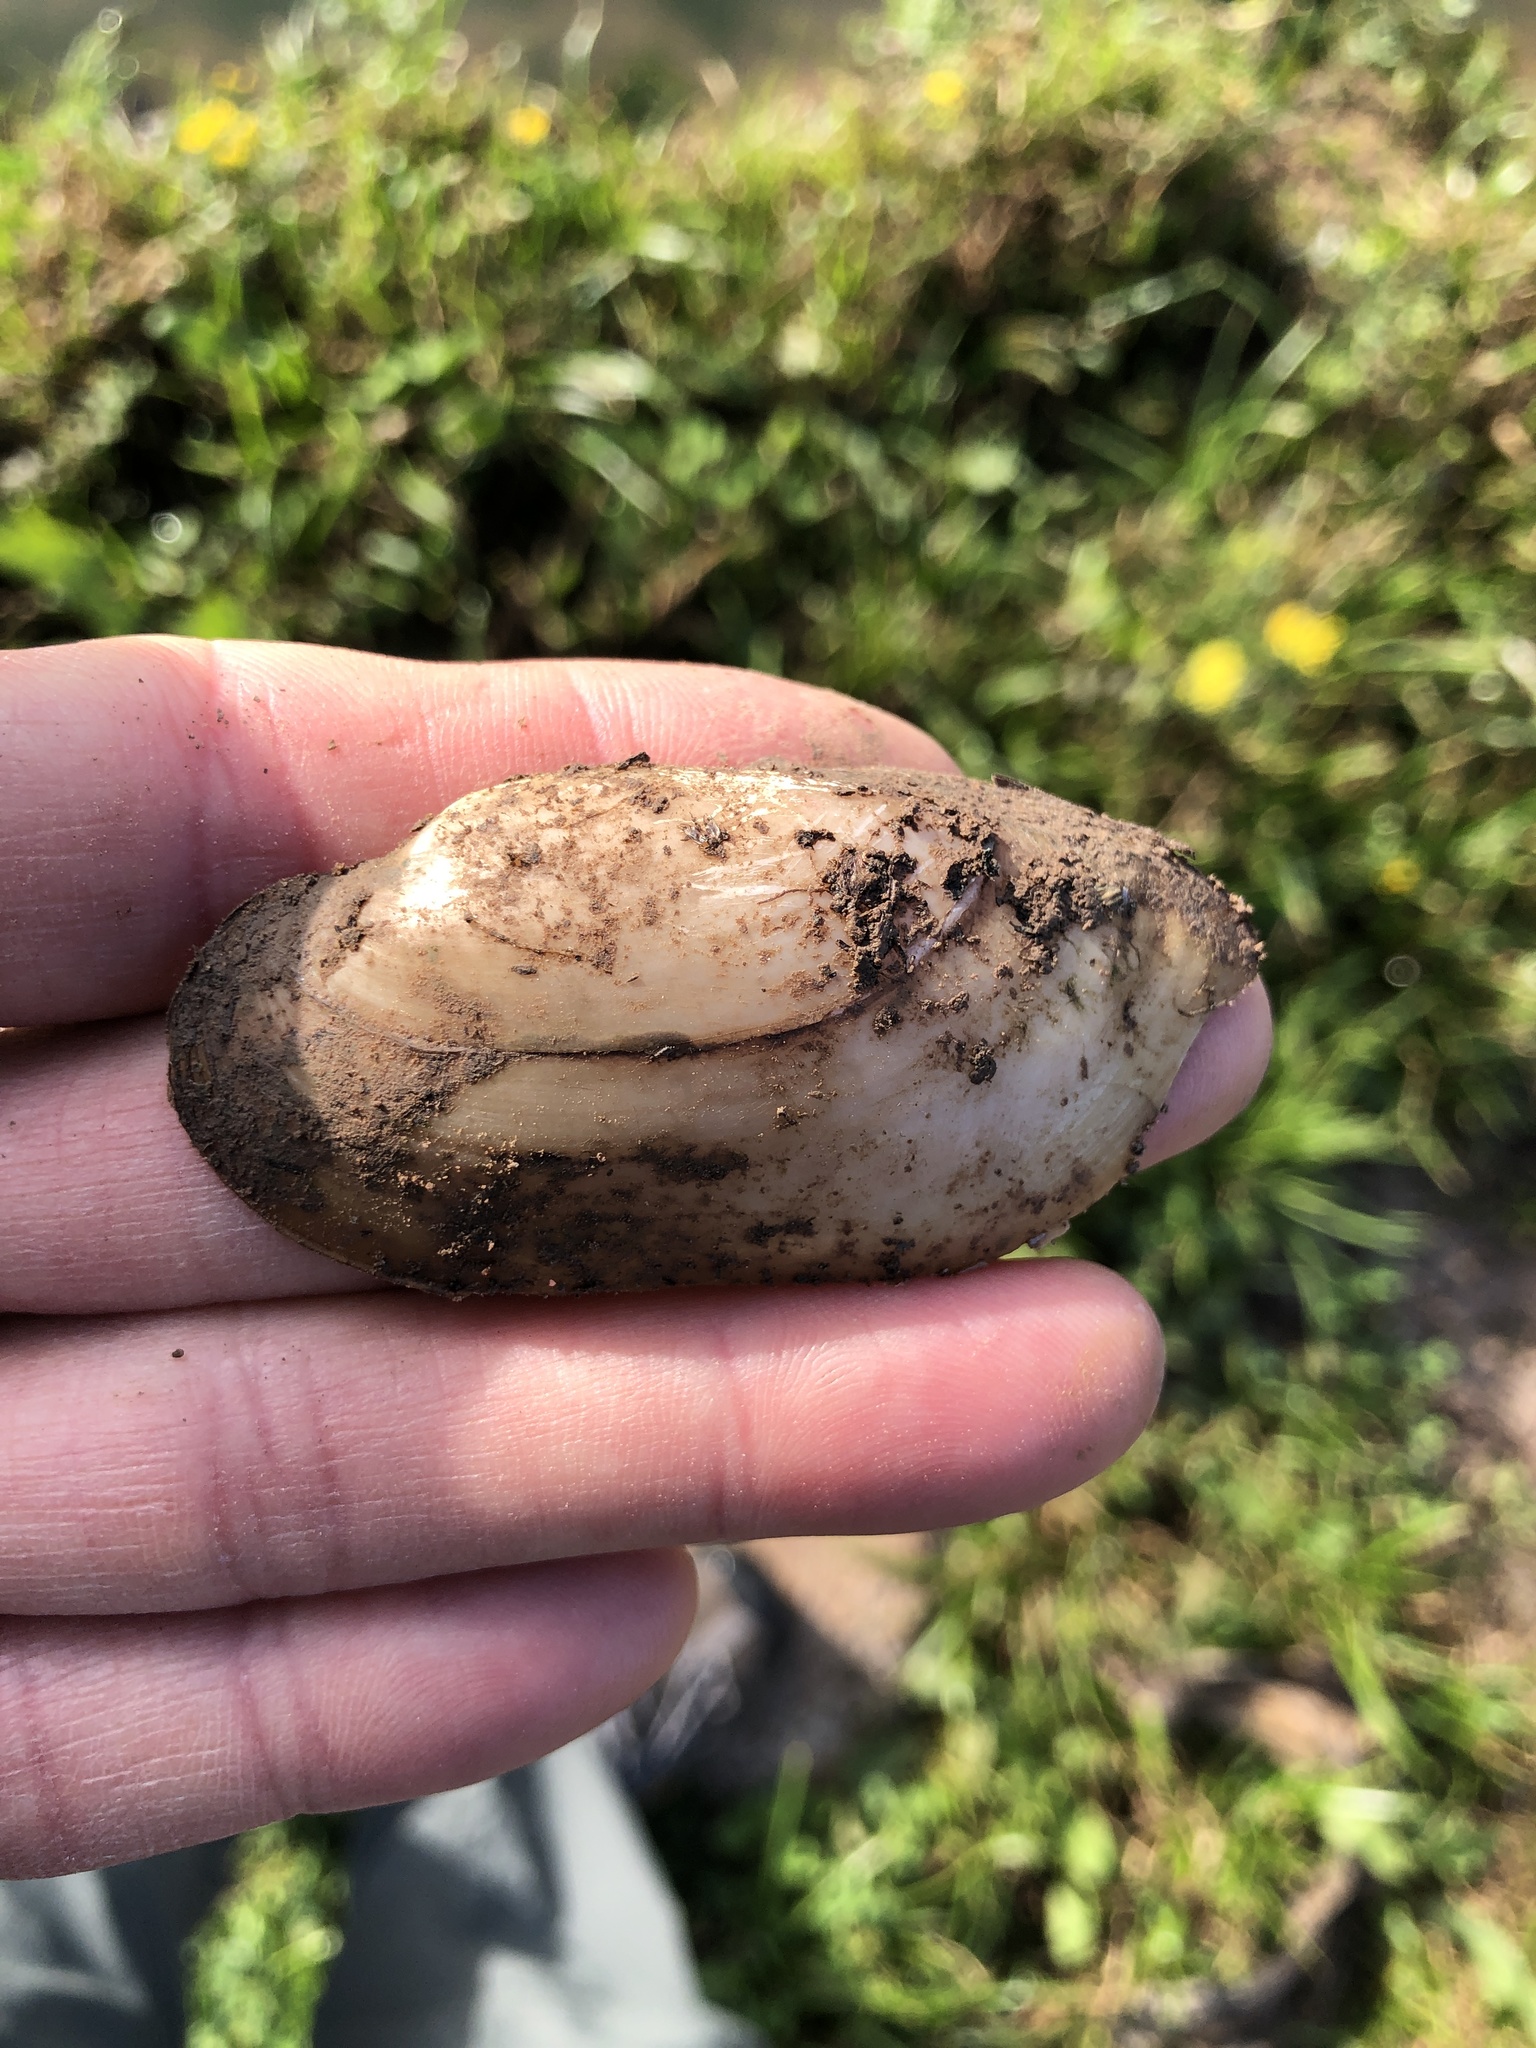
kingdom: Animalia
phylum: Mollusca
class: Bivalvia
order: Unionida
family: Unionidae
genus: Lampsilis
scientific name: Lampsilis teres
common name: Yellow sandshell
